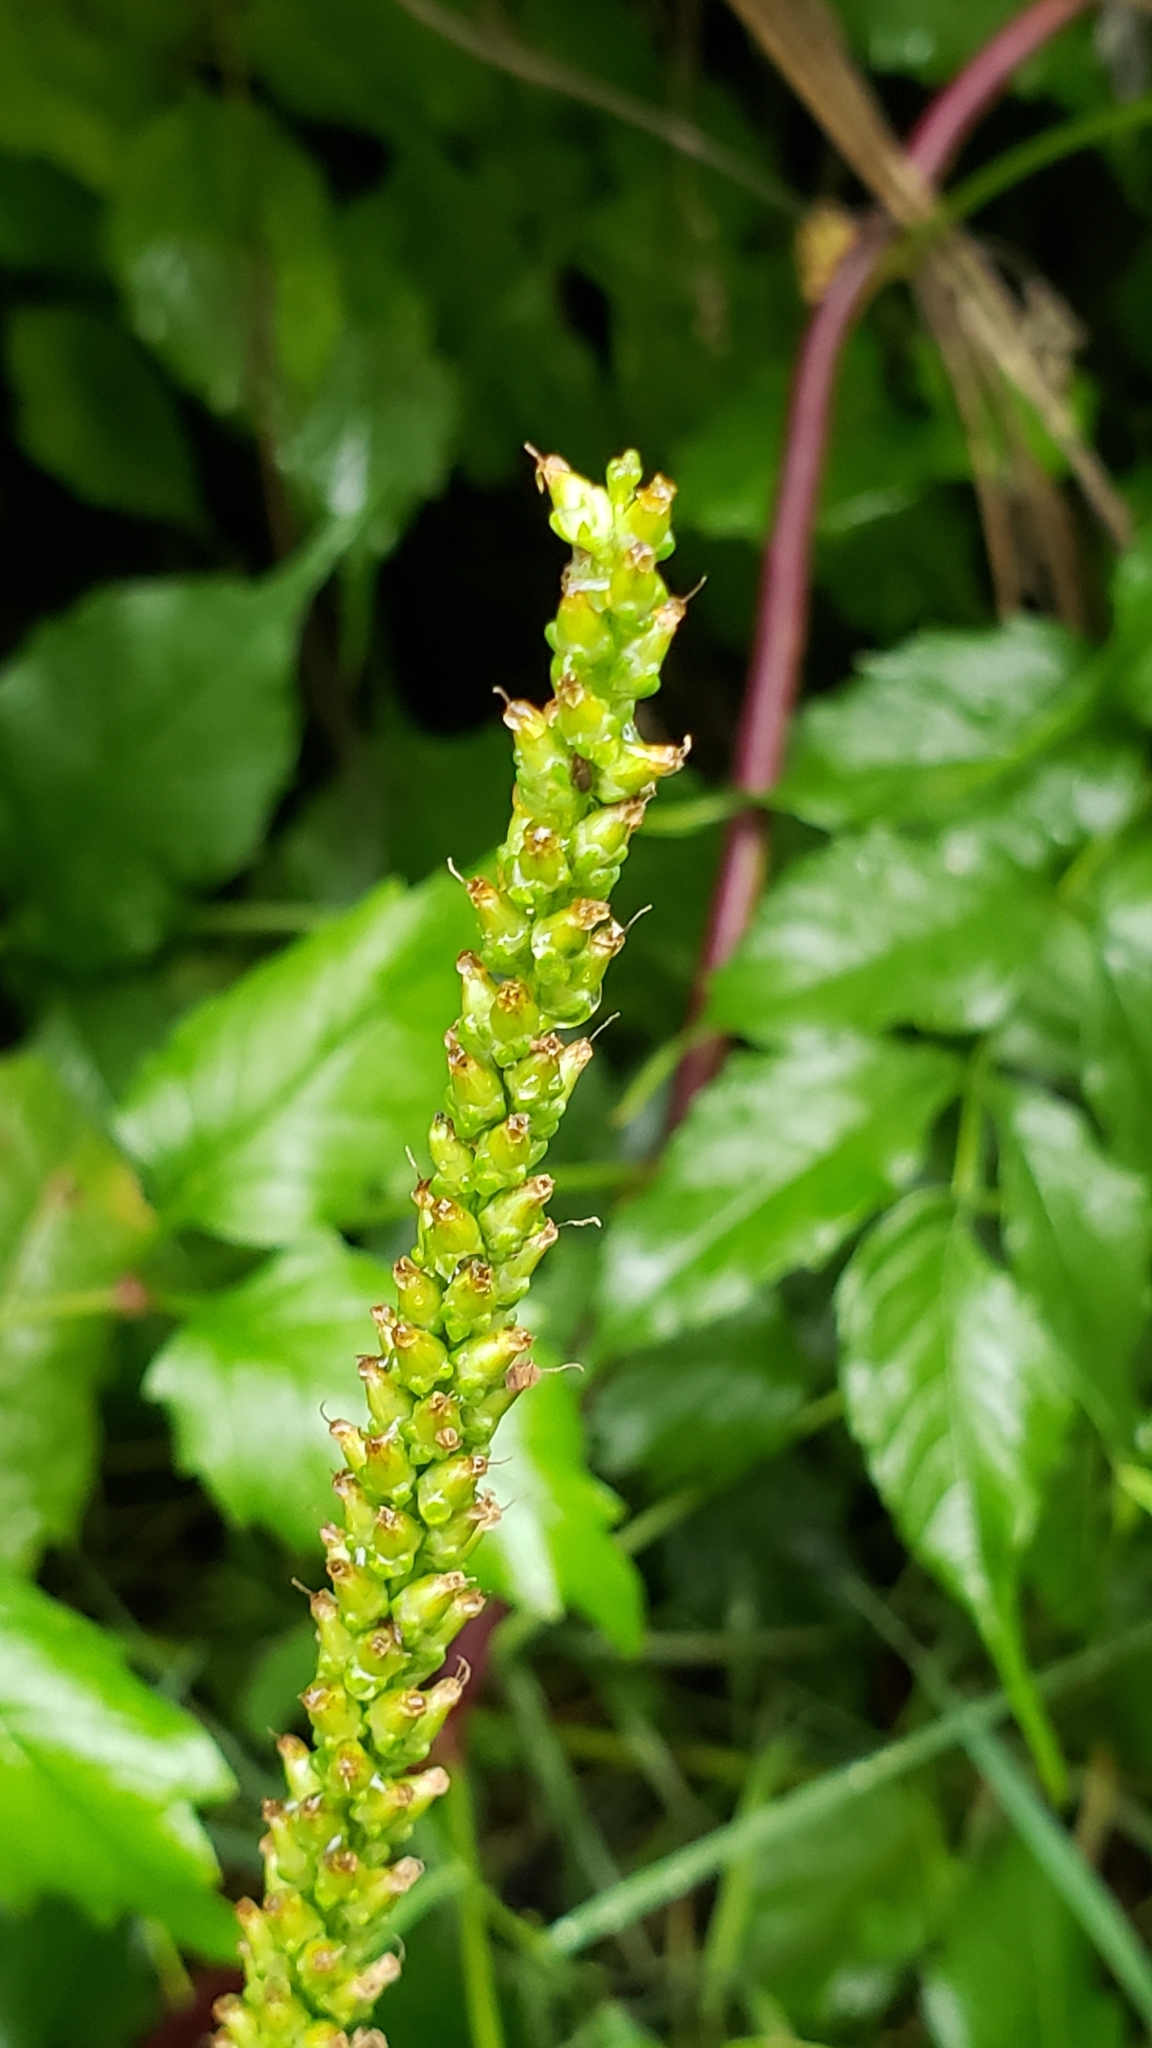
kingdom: Plantae
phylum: Tracheophyta
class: Magnoliopsida
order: Lamiales
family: Plantaginaceae
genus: Plantago
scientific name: Plantago major
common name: Common plantain
